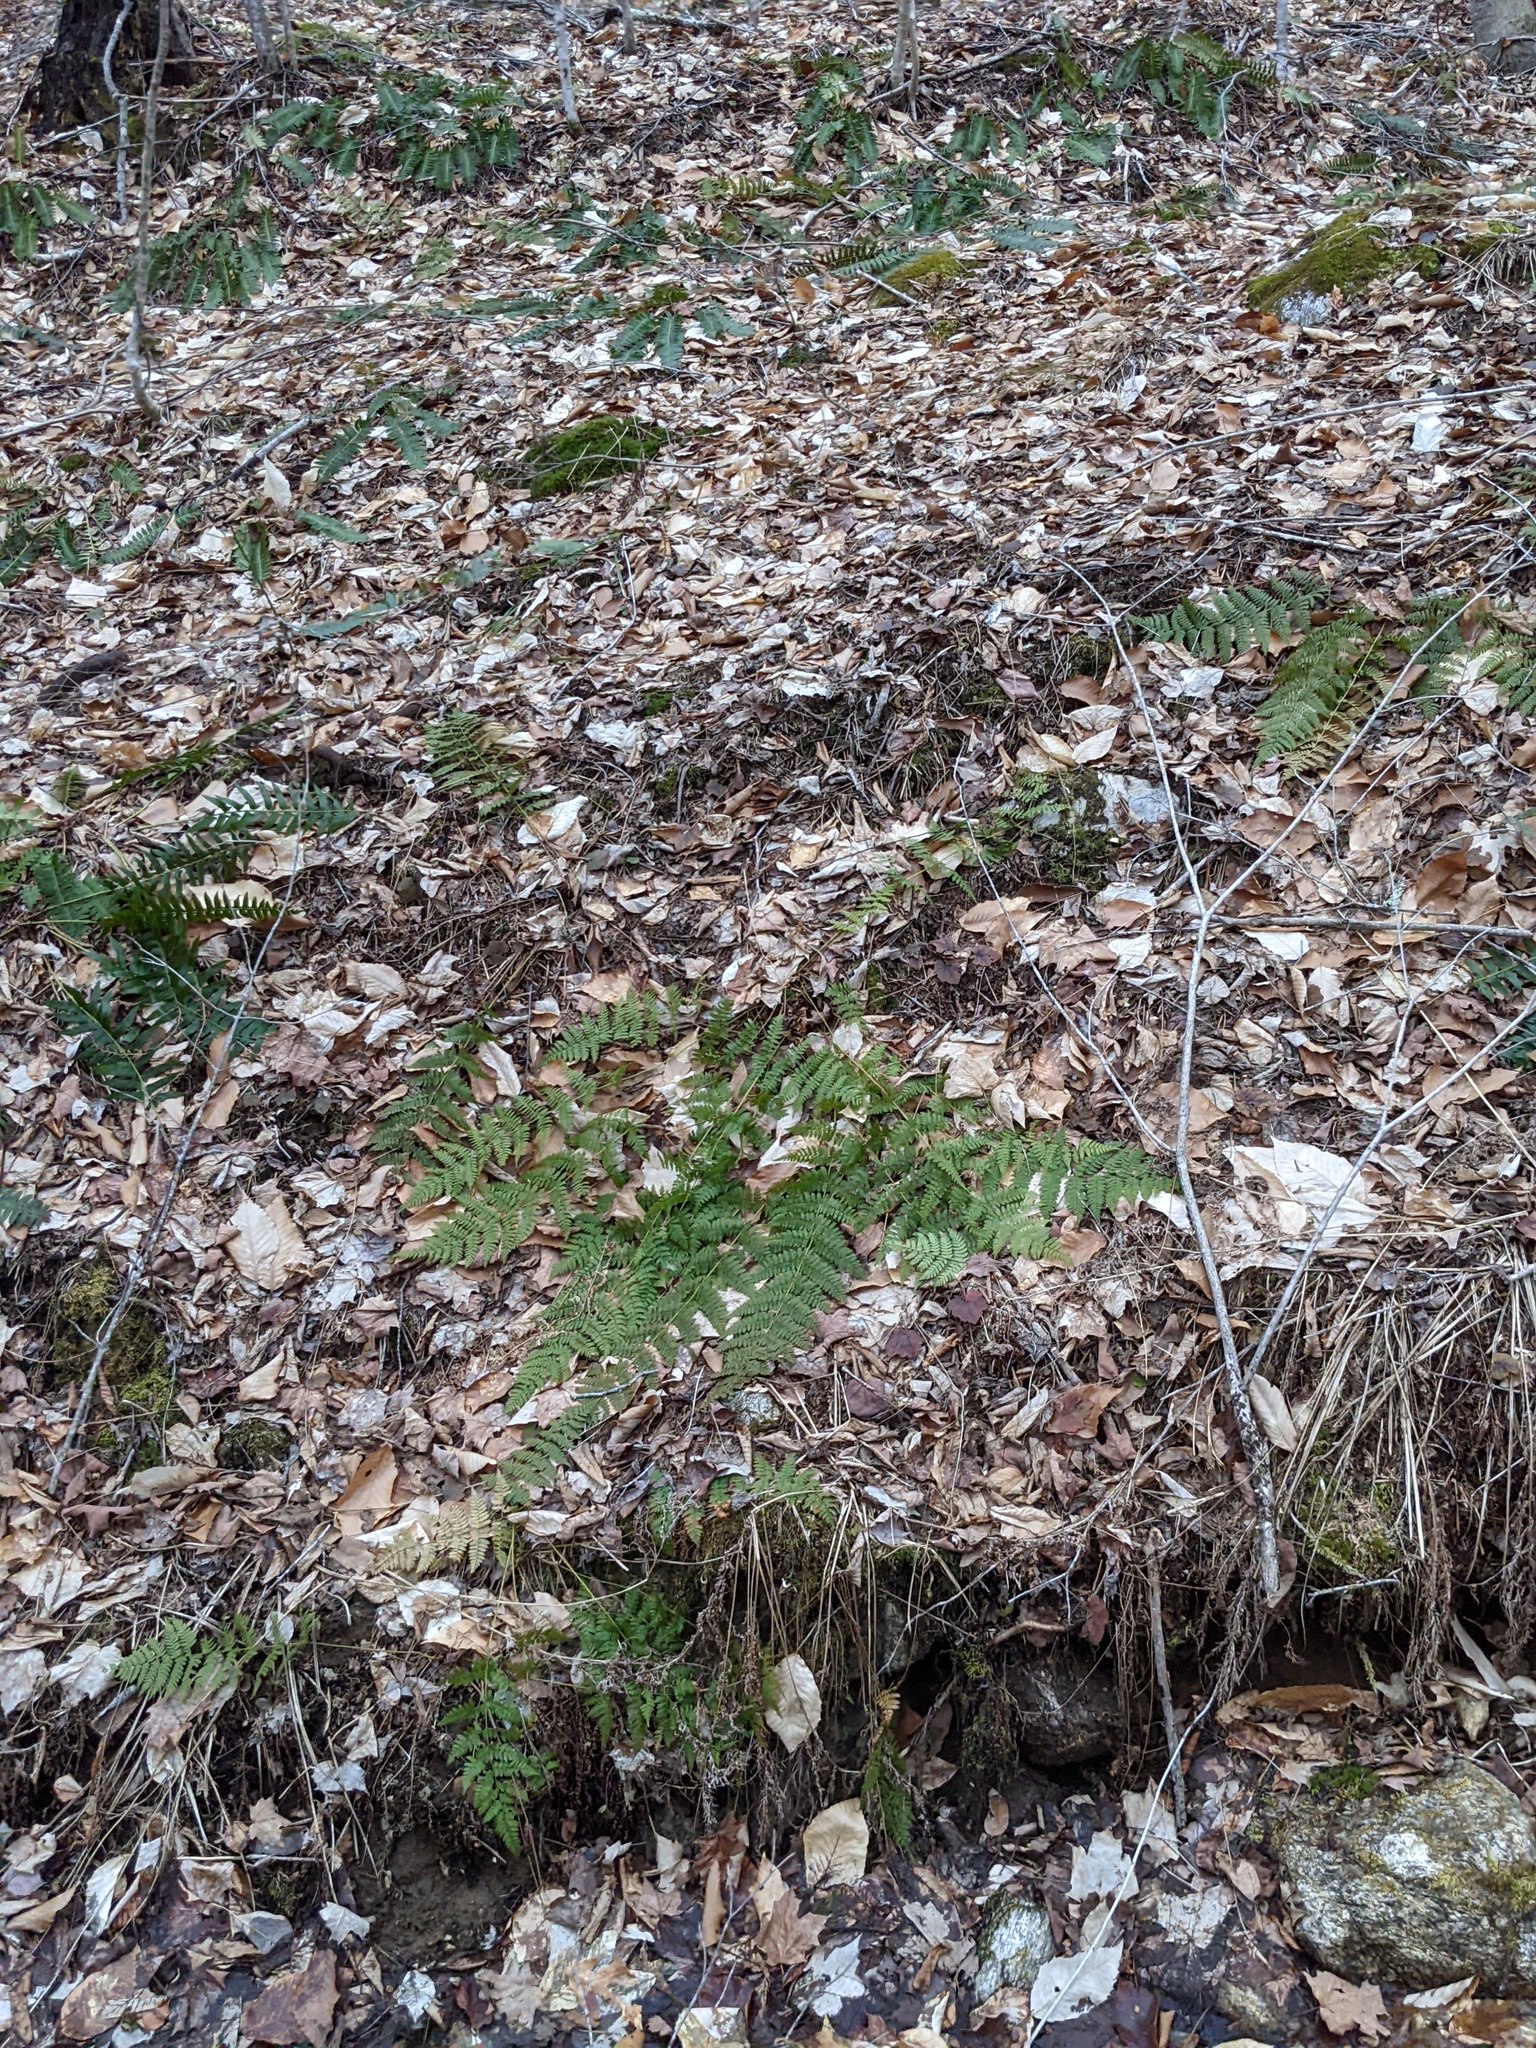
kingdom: Plantae
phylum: Tracheophyta
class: Polypodiopsida
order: Polypodiales
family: Dryopteridaceae
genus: Dryopteris
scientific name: Dryopteris intermedia
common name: Evergreen wood fern
